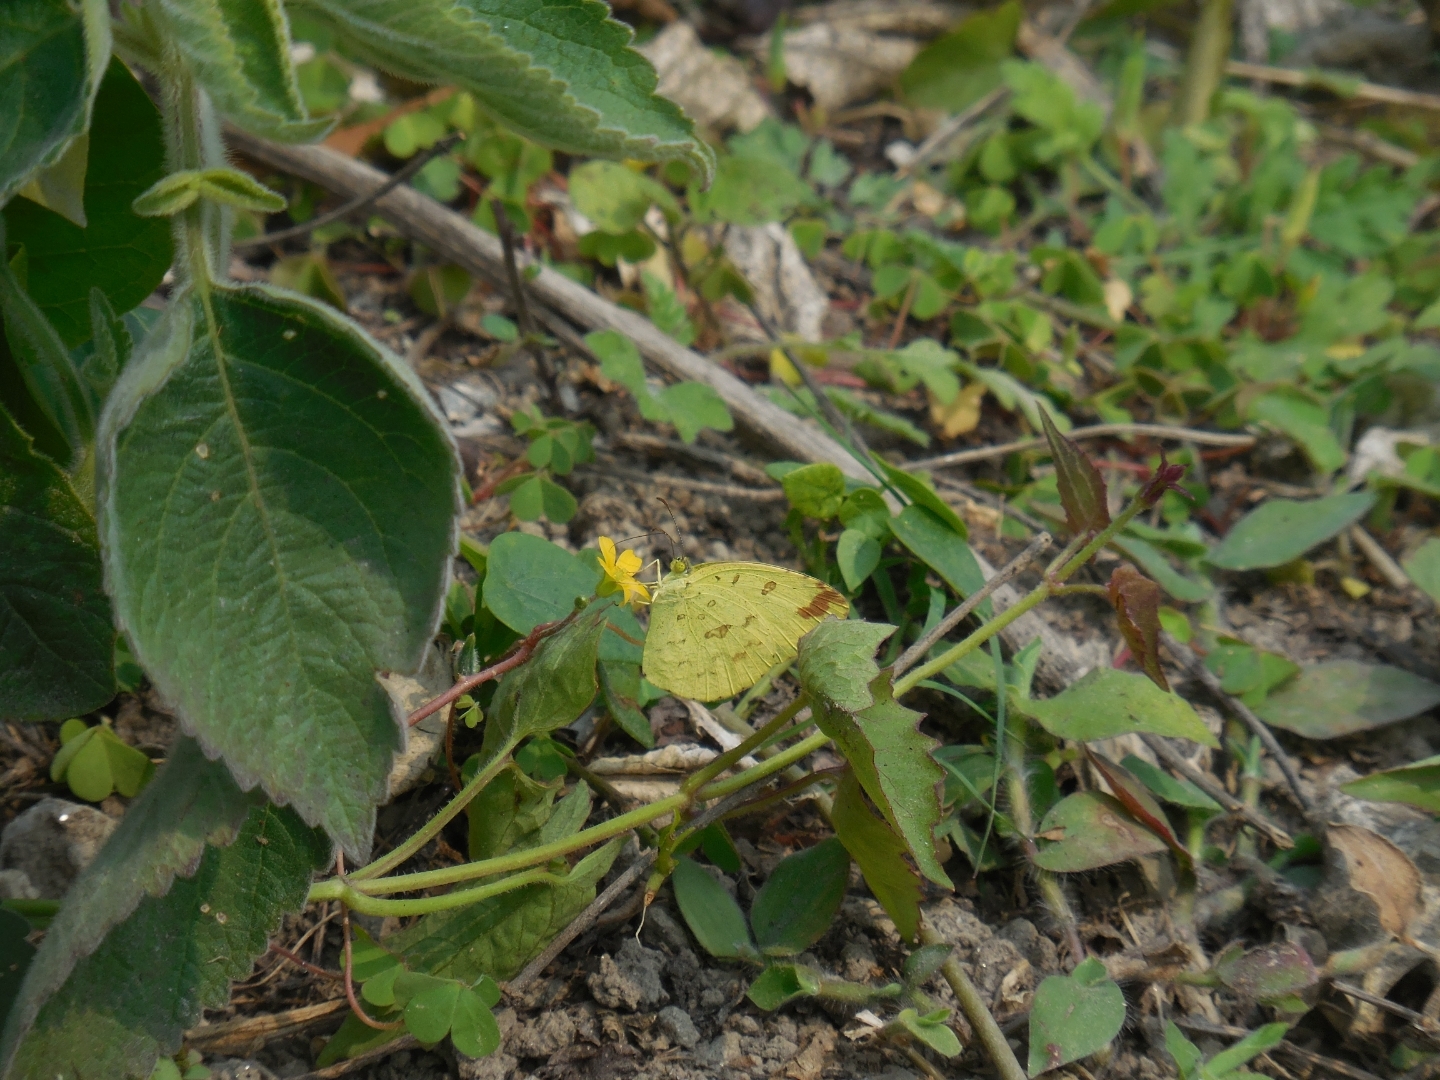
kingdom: Animalia
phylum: Arthropoda
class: Insecta
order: Lepidoptera
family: Pieridae
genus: Eurema
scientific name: Eurema hecabe
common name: Pale grass yellow
